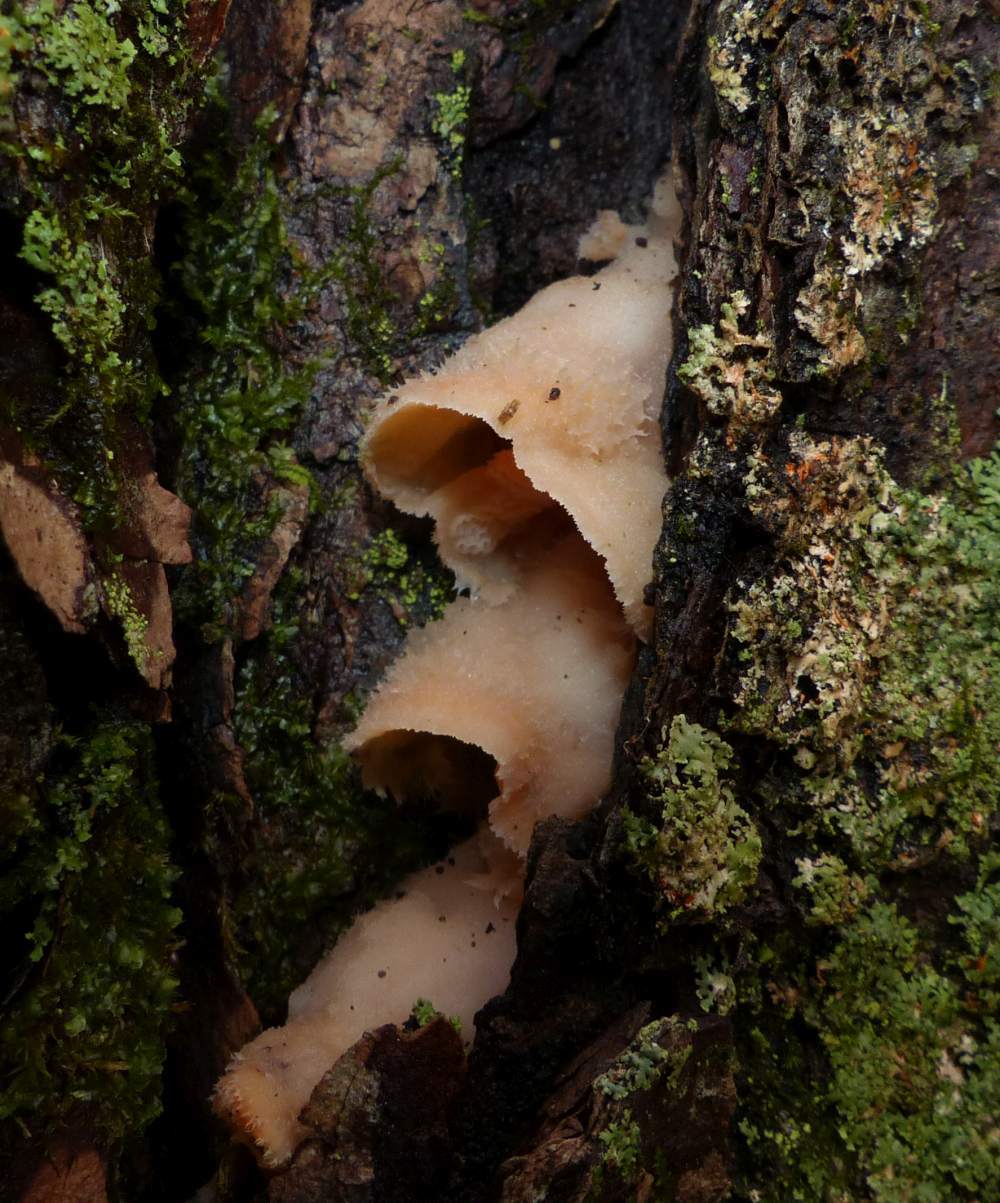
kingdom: Fungi
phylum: Basidiomycota
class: Agaricomycetes
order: Polyporales
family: Meruliaceae
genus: Phlebia
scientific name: Phlebia tremellosa
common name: Jelly rot
